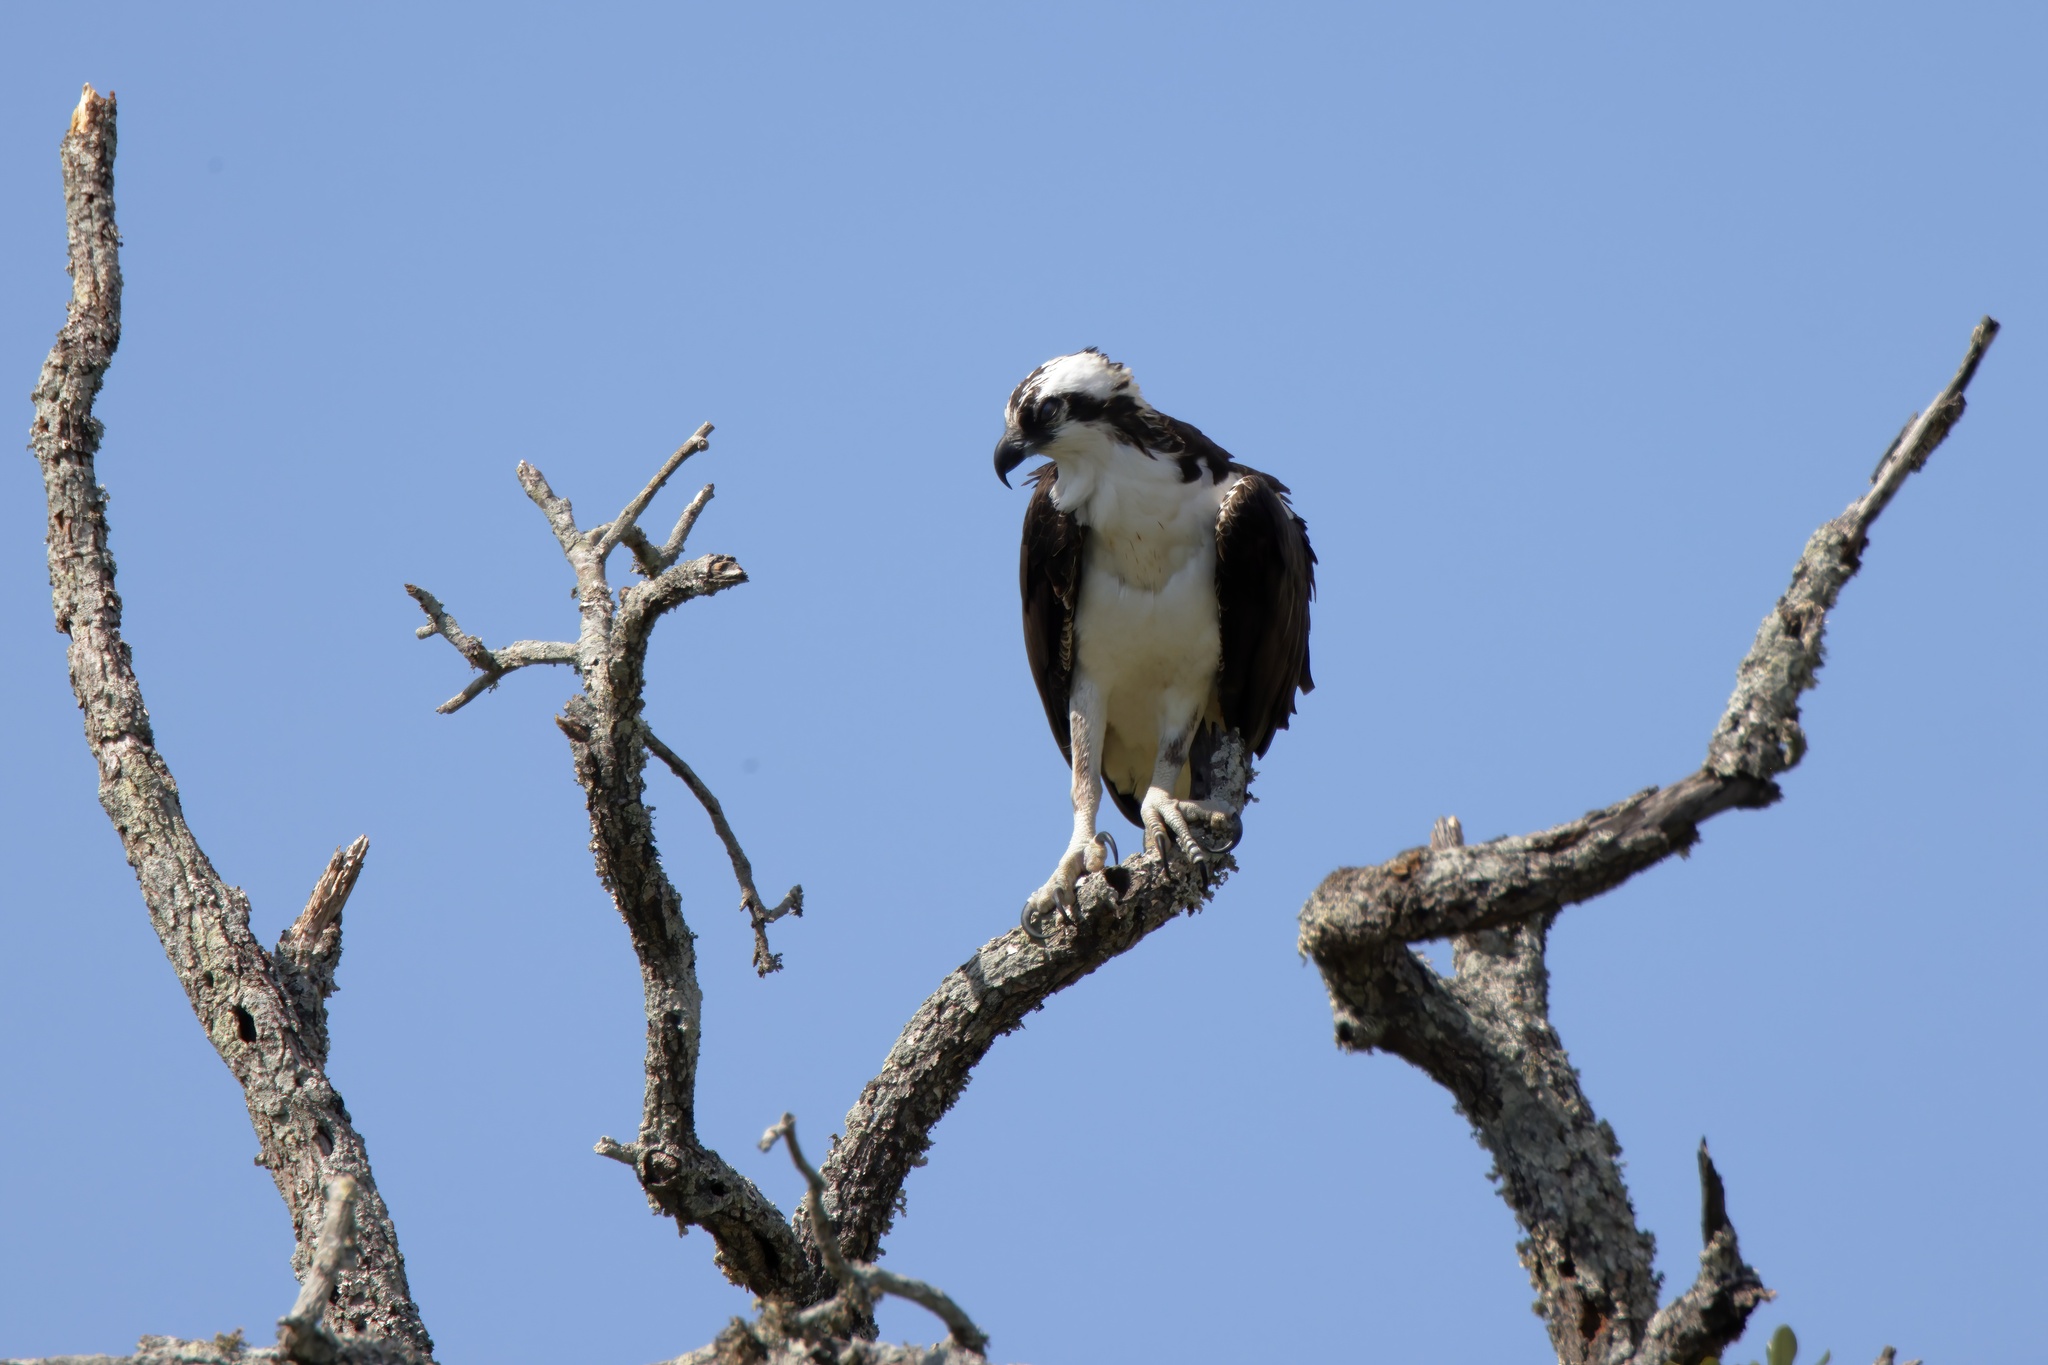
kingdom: Animalia
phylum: Chordata
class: Aves
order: Accipitriformes
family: Pandionidae
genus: Pandion
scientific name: Pandion haliaetus
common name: Osprey
